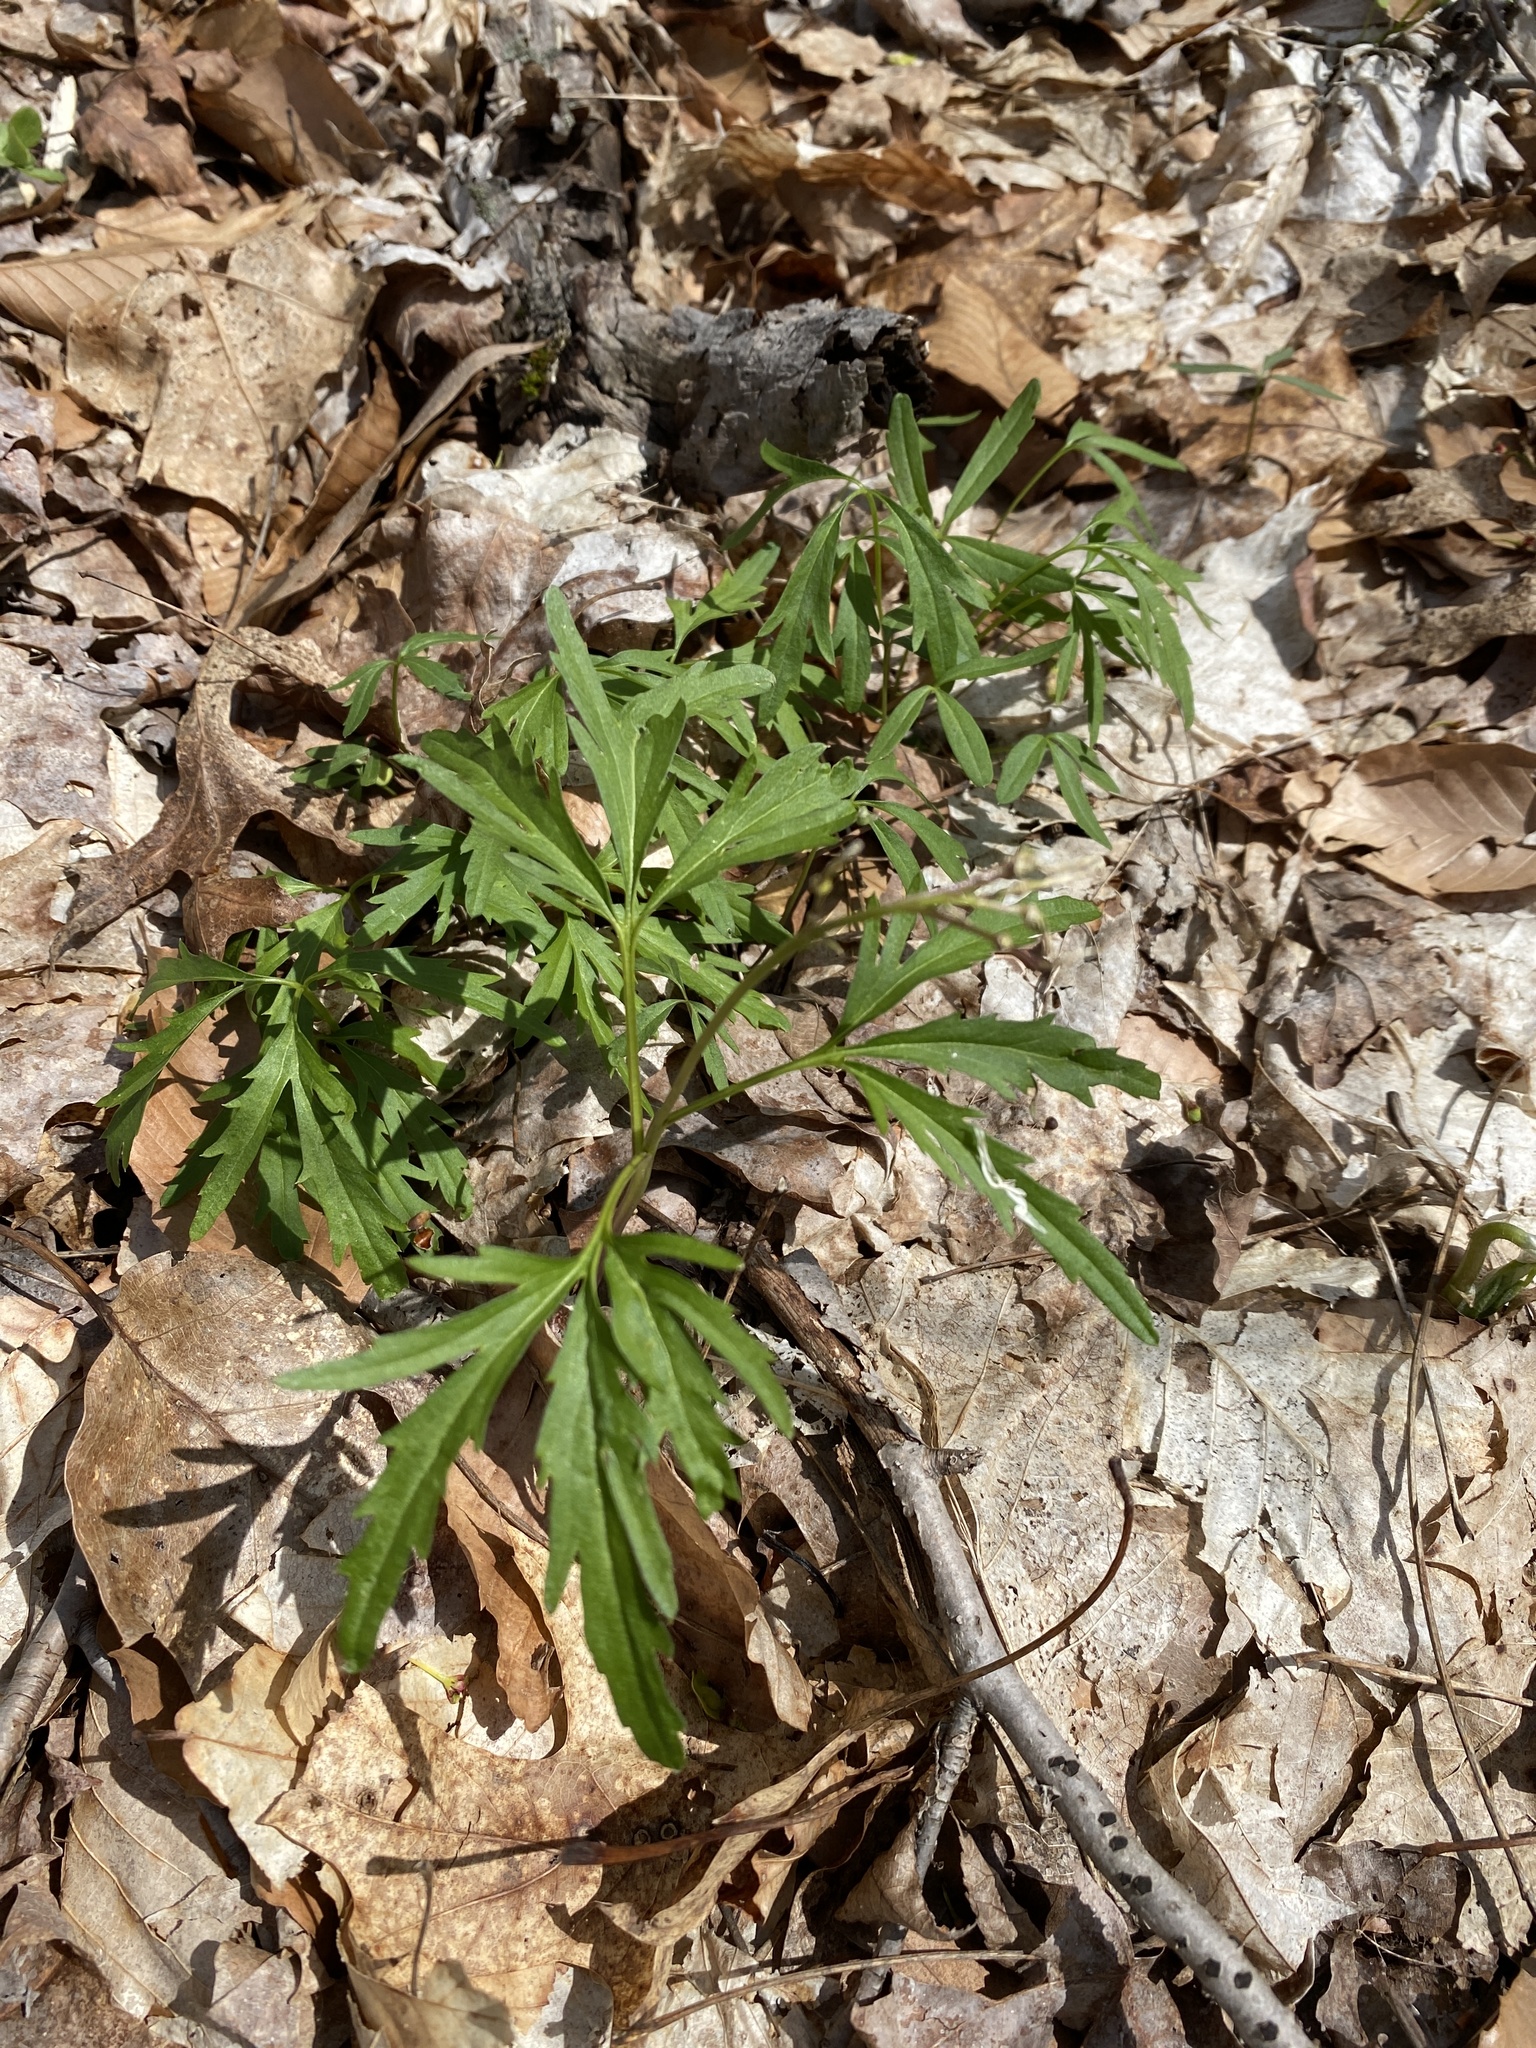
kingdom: Plantae
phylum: Tracheophyta
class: Magnoliopsida
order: Brassicales
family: Brassicaceae
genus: Cardamine
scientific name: Cardamine concatenata
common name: Cut-leaf toothcup
